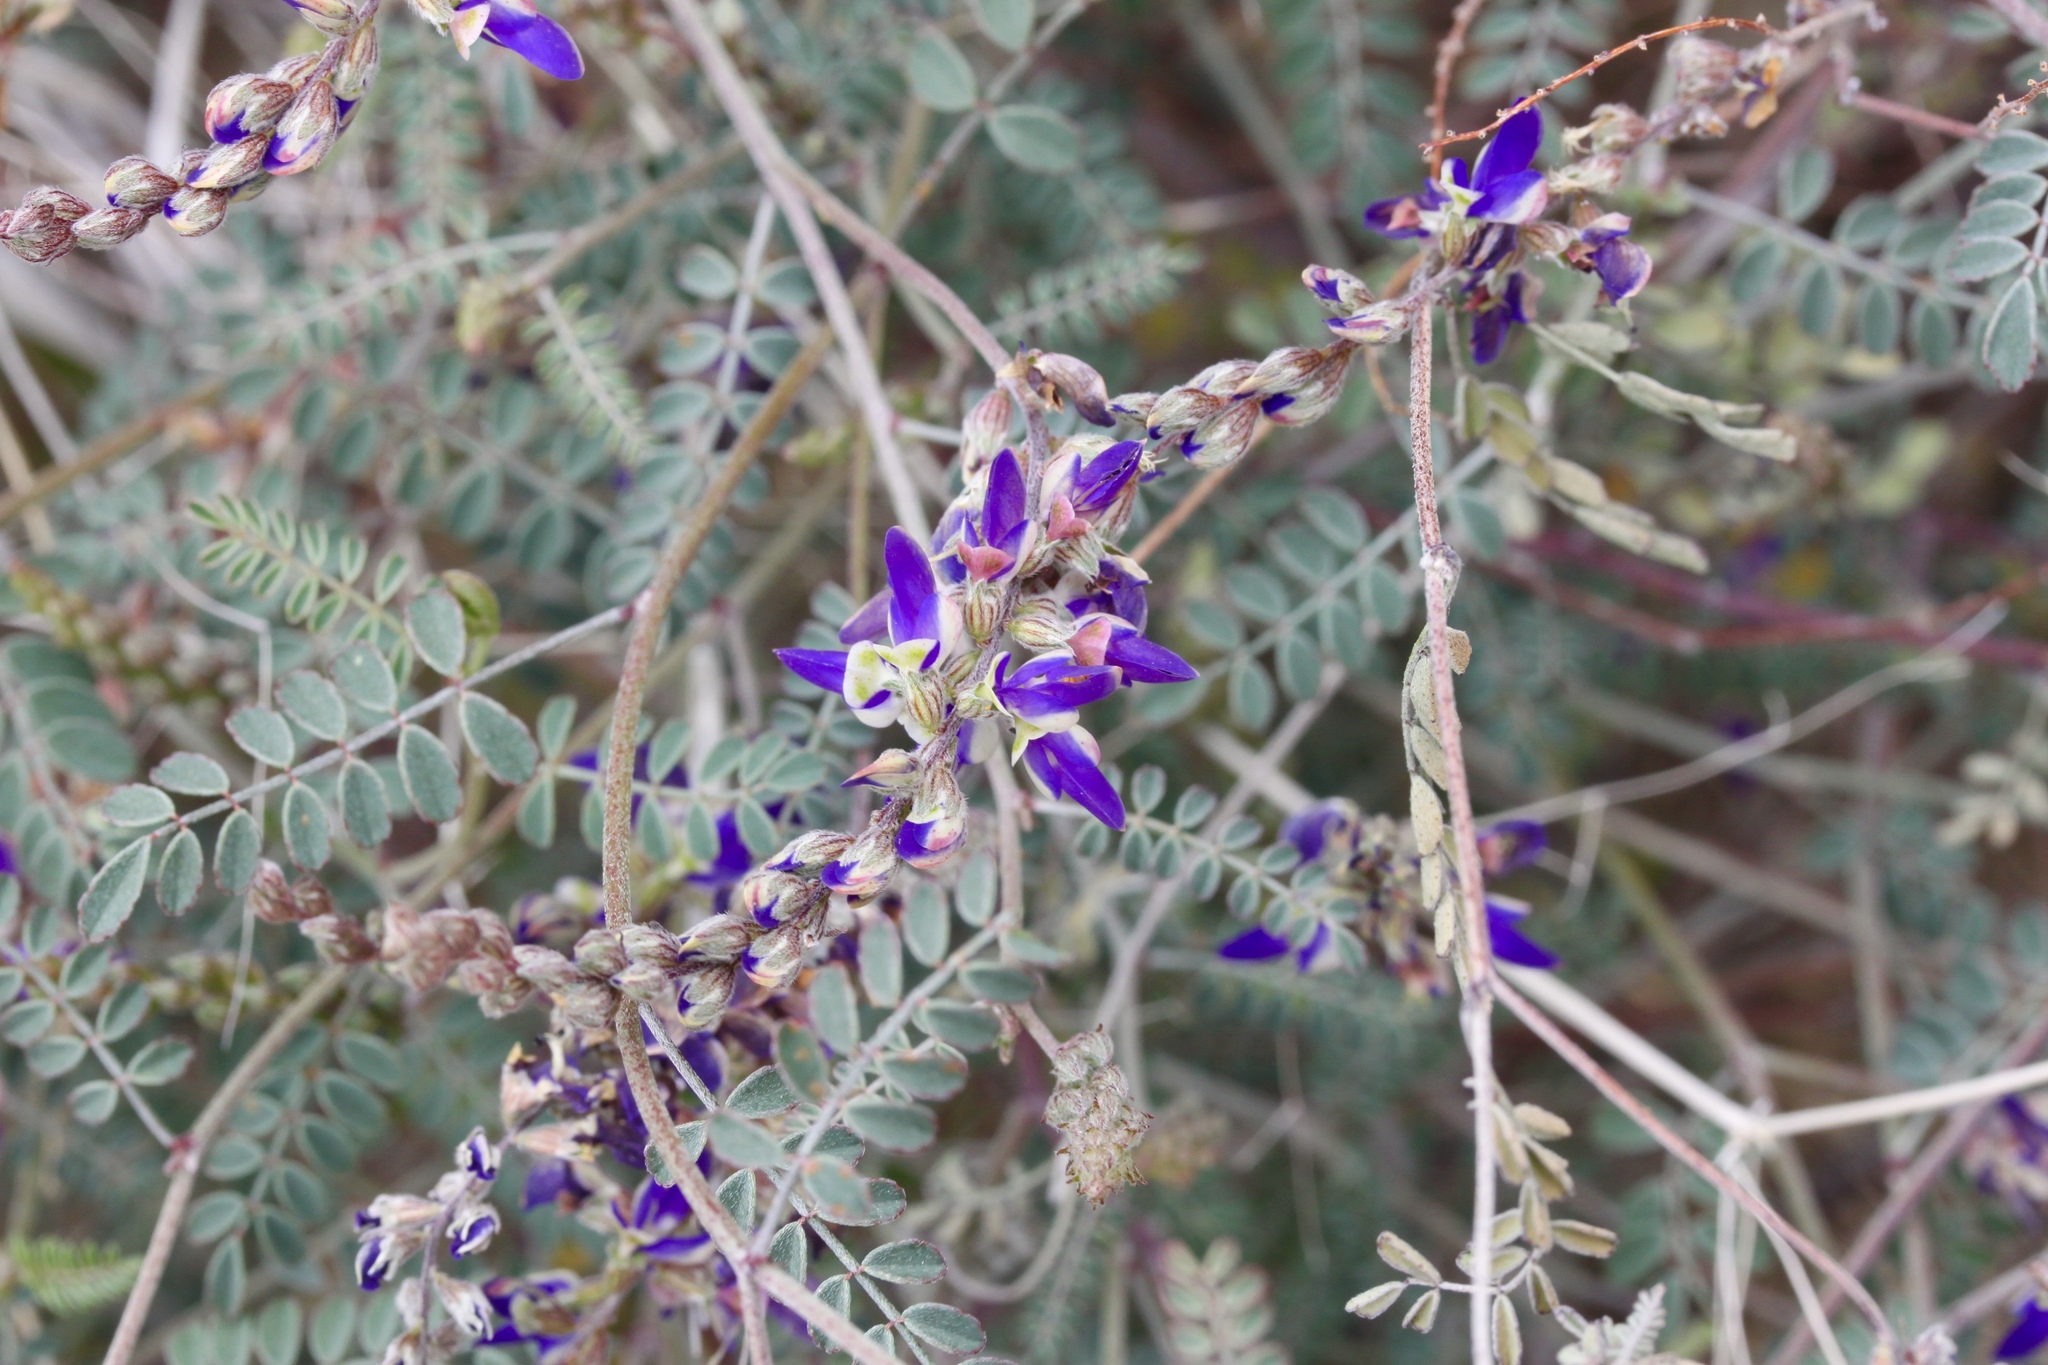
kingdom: Plantae
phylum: Tracheophyta
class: Magnoliopsida
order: Fabales
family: Fabaceae
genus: Marina
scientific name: Marina parryi
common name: Parry's marina
